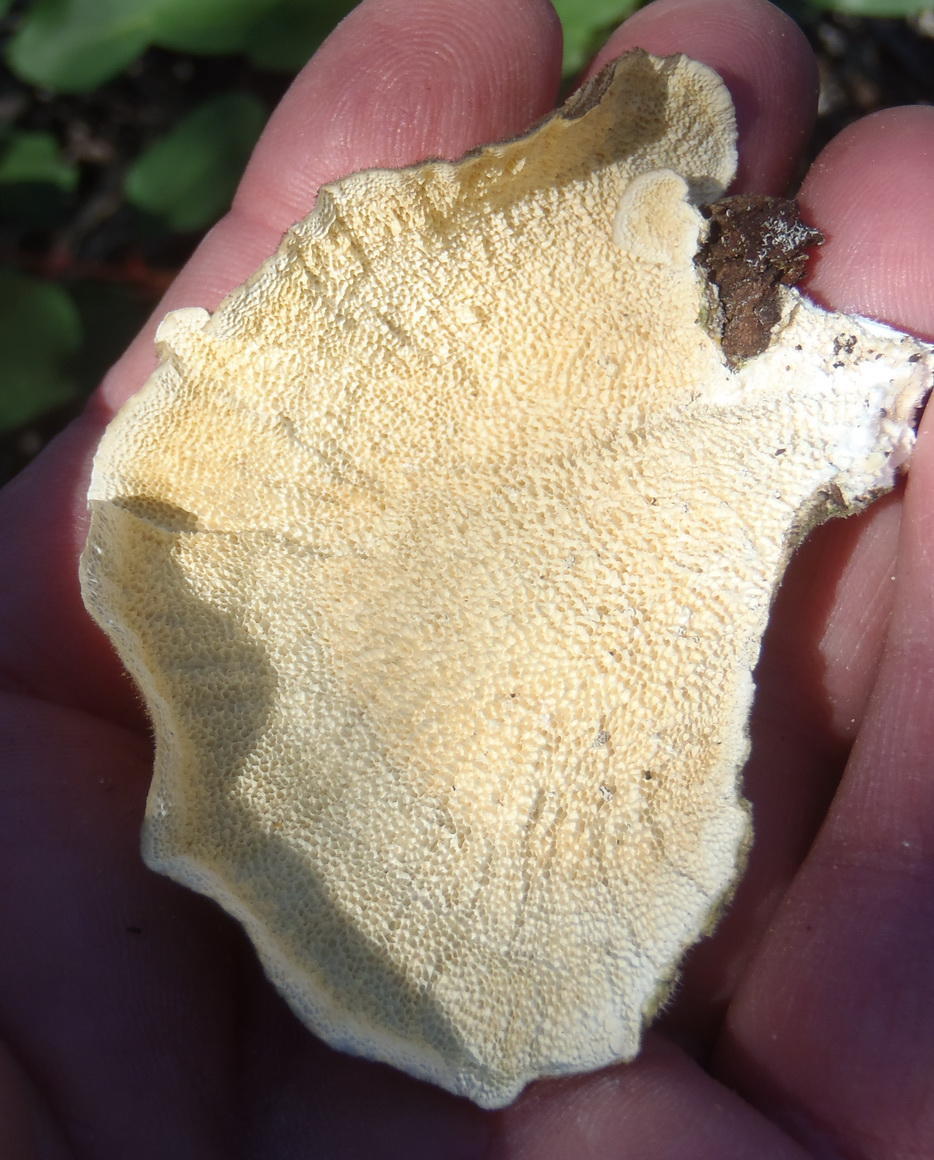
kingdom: Fungi
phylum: Basidiomycota
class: Agaricomycetes
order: Polyporales
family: Polyporaceae
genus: Trametes
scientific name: Trametes hirsuta
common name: Hairy bracket
